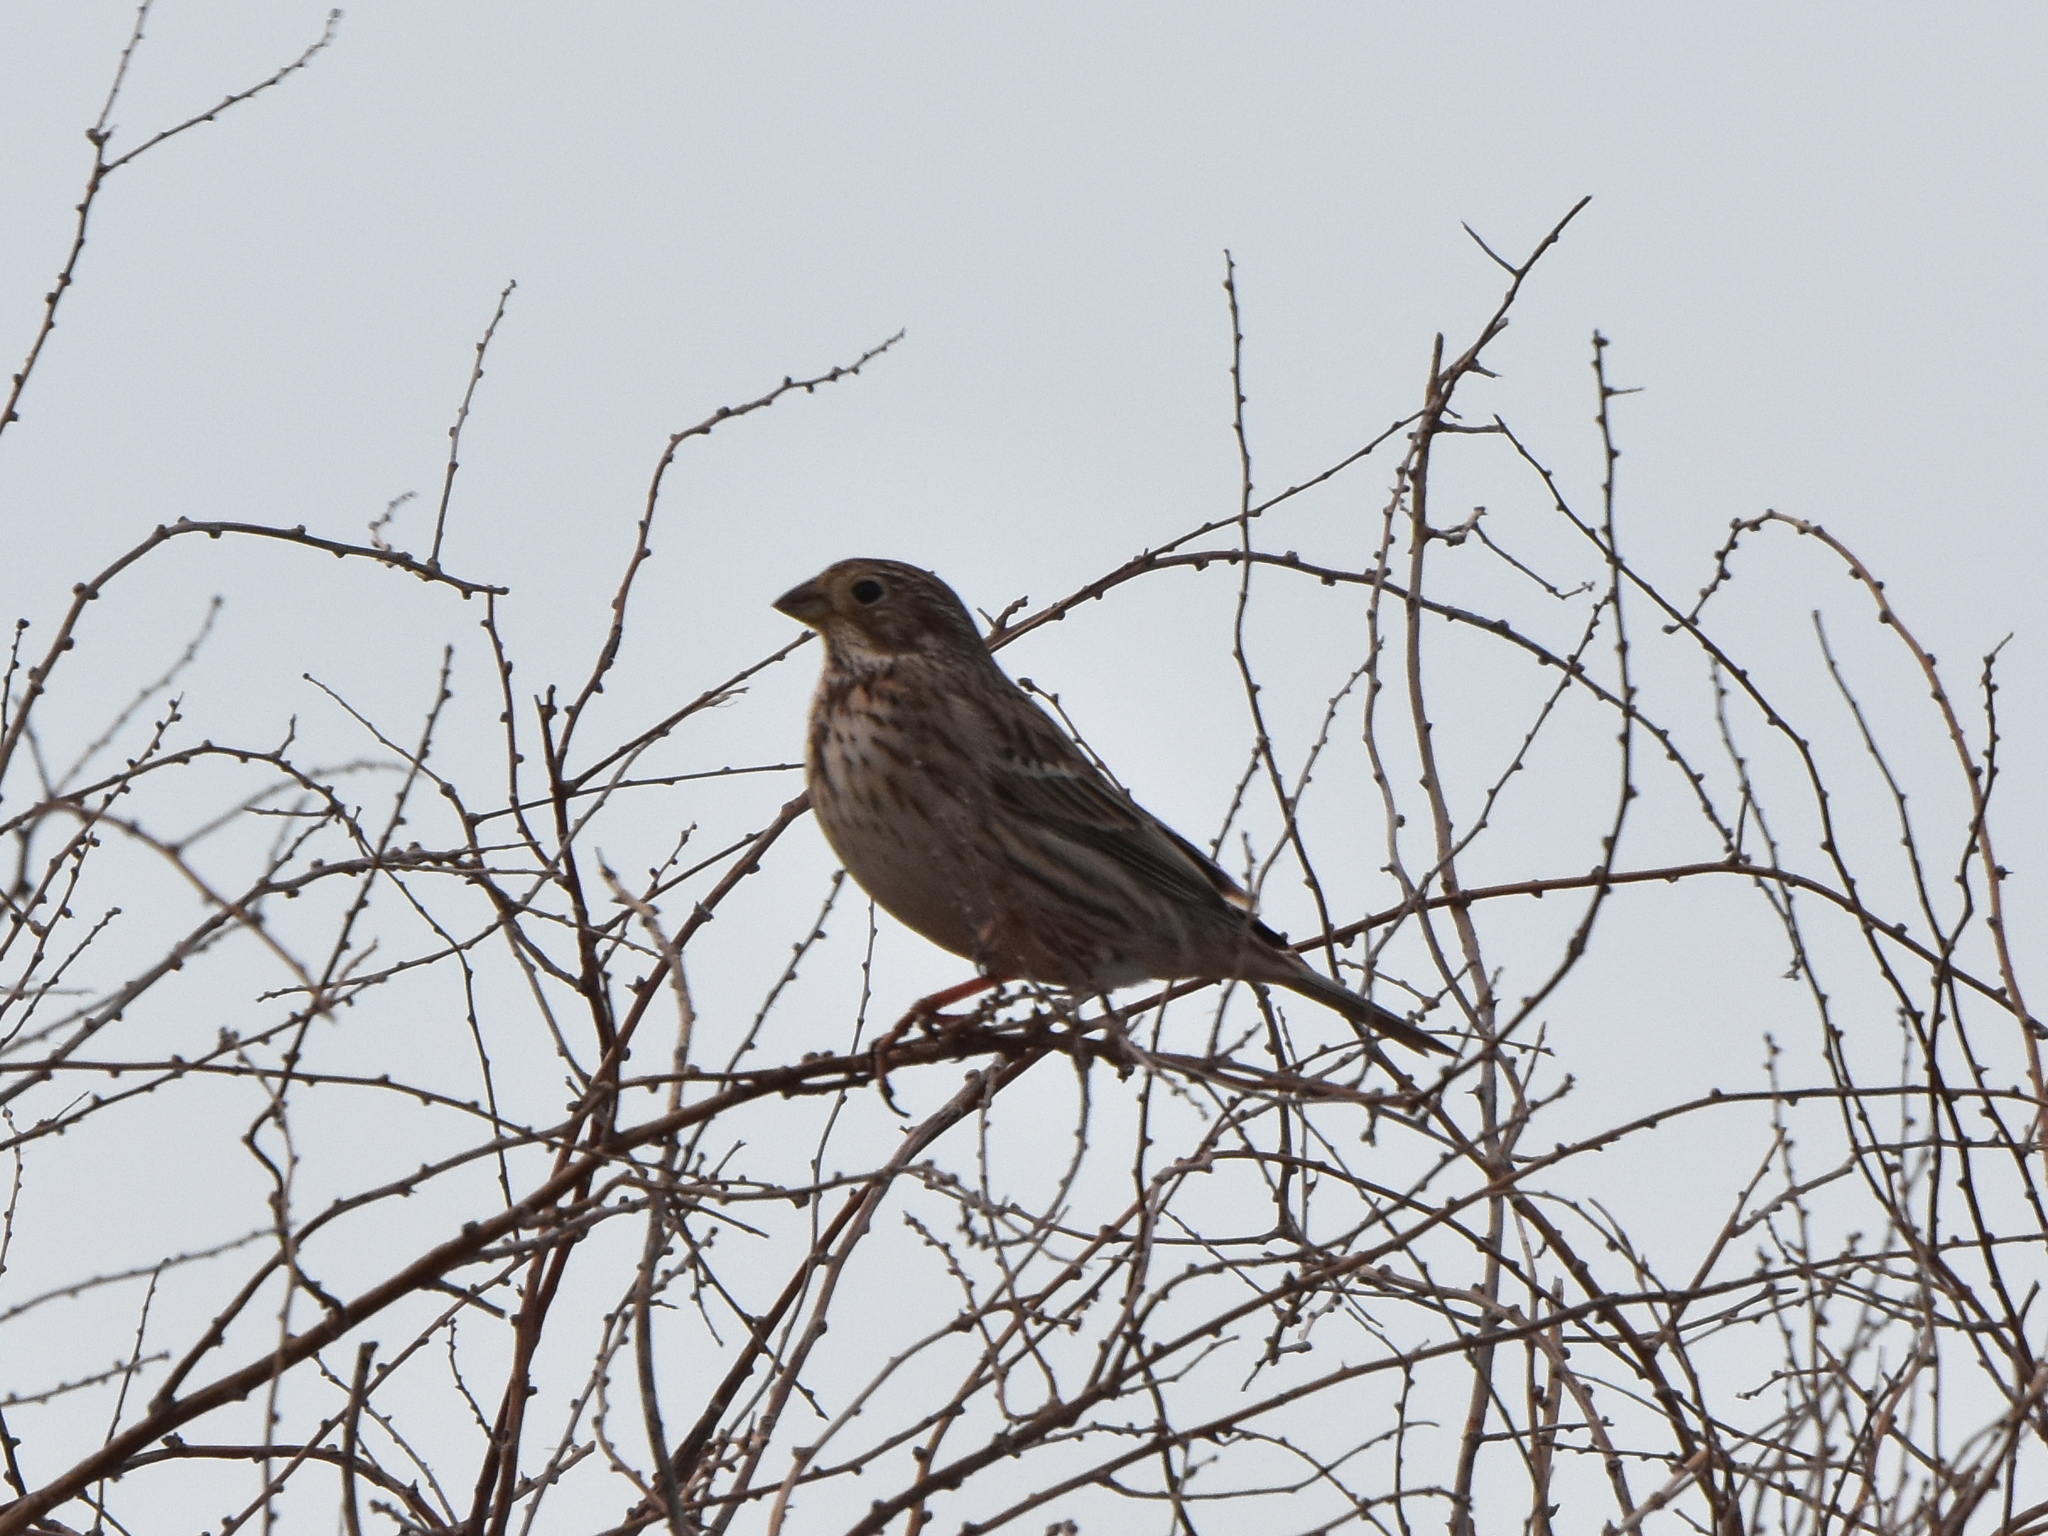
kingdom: Animalia
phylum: Chordata
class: Aves
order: Passeriformes
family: Emberizidae
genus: Emberiza
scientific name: Emberiza calandra
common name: Corn bunting
